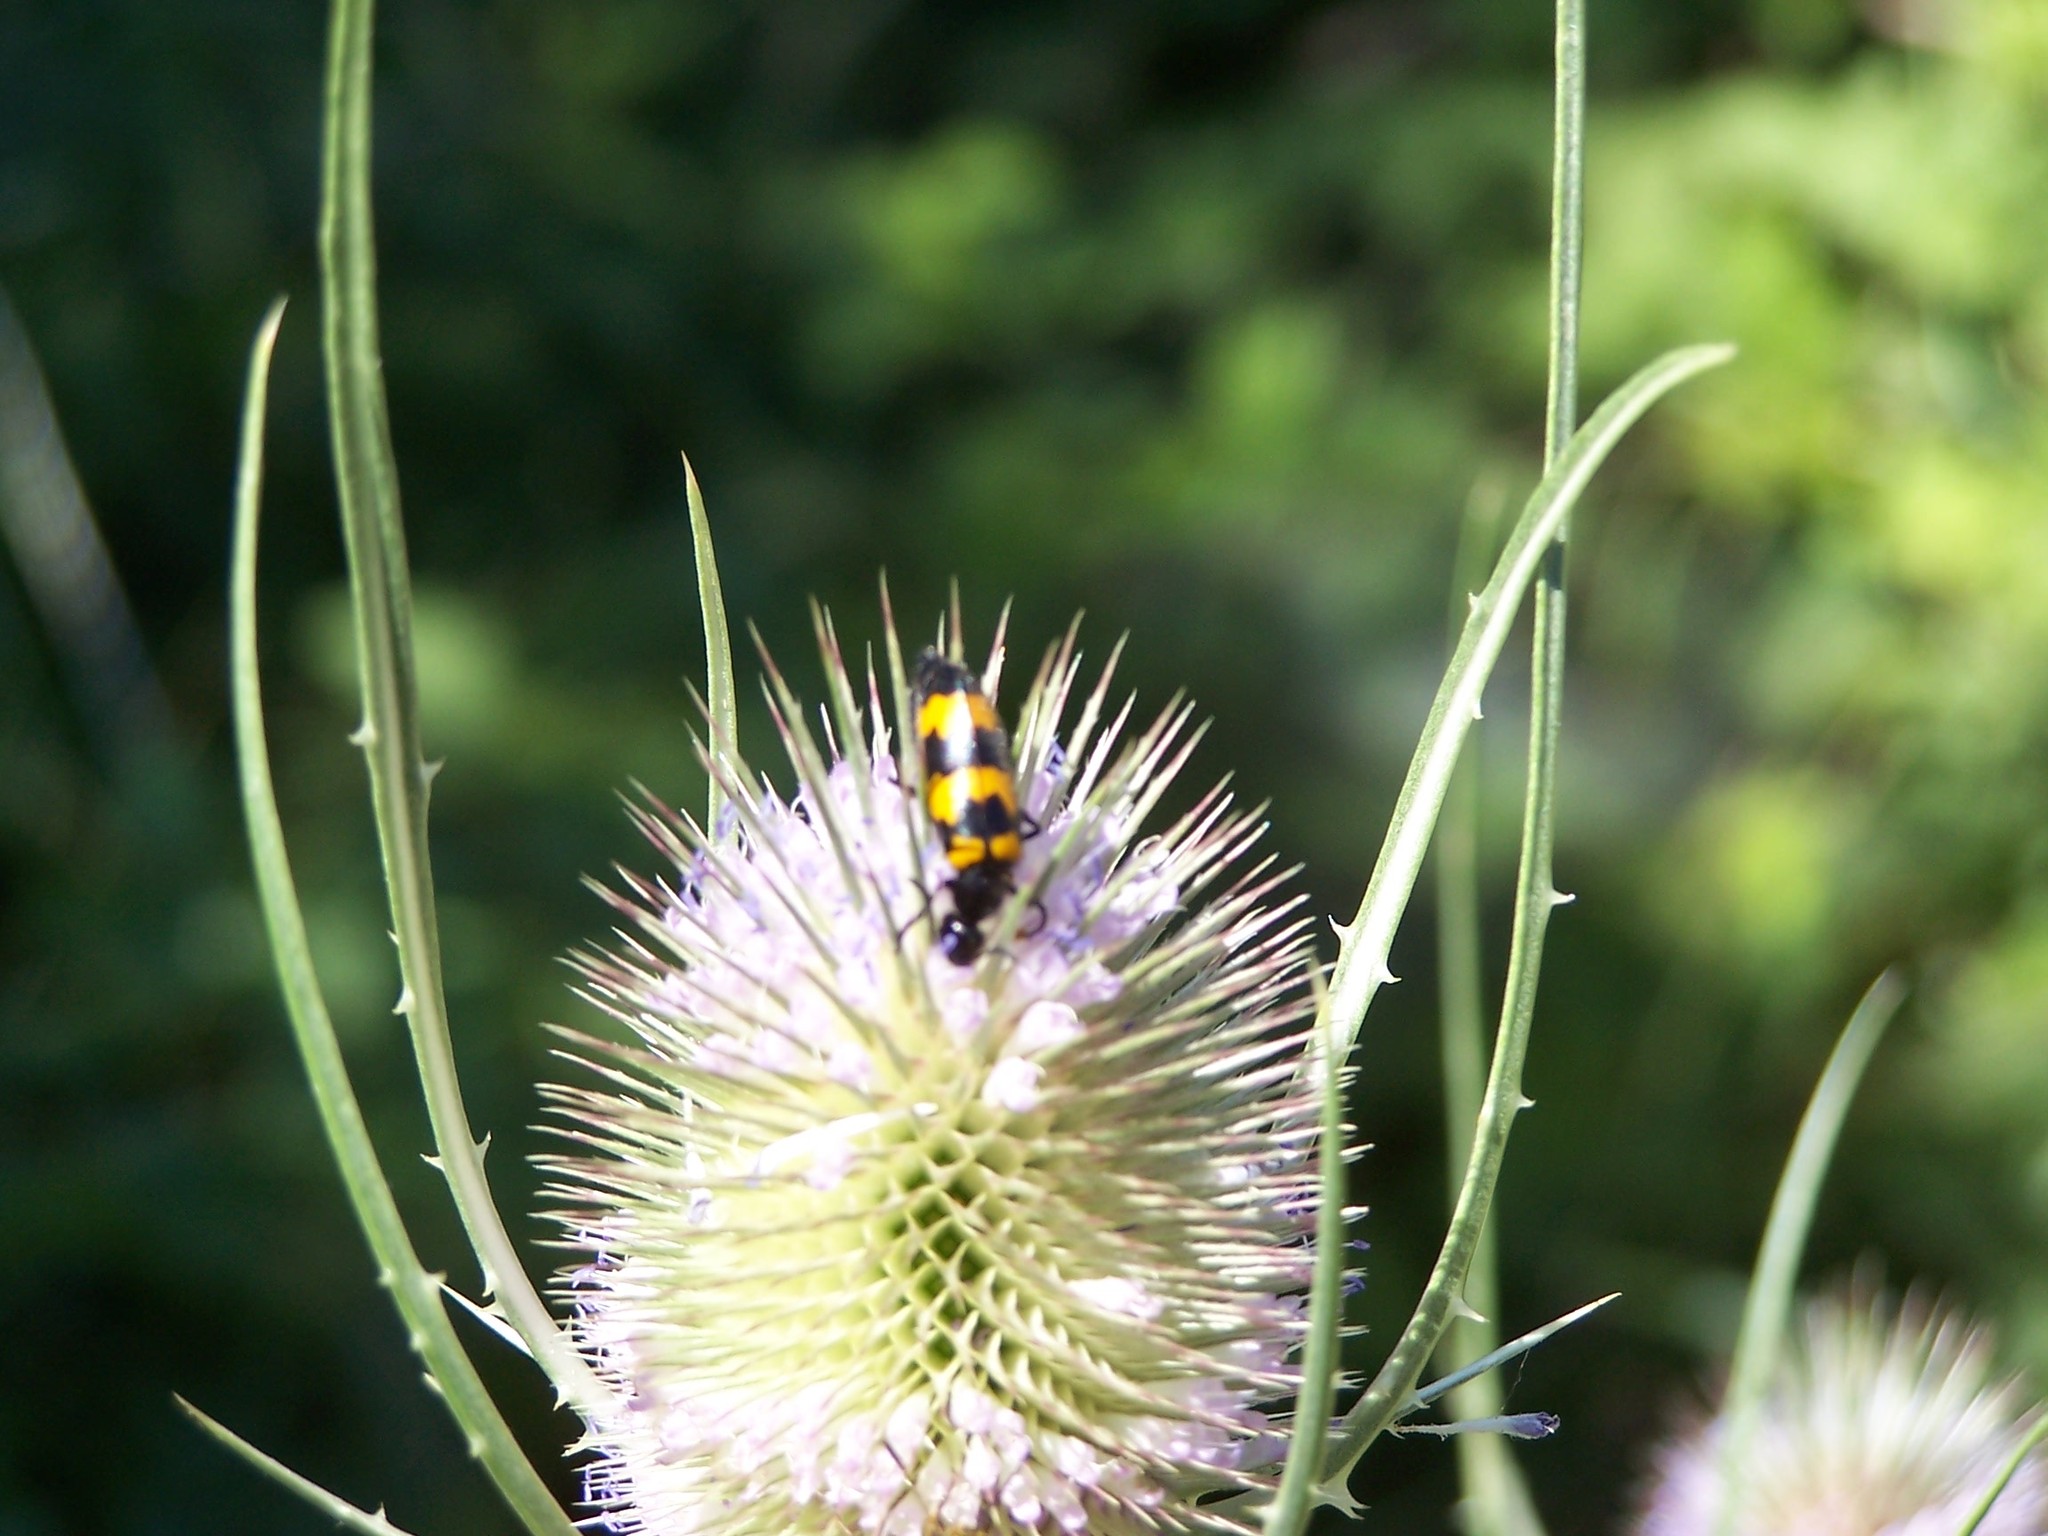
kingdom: Animalia
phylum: Arthropoda
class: Insecta
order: Coleoptera
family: Meloidae
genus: Mylabris
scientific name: Mylabris variabilis
